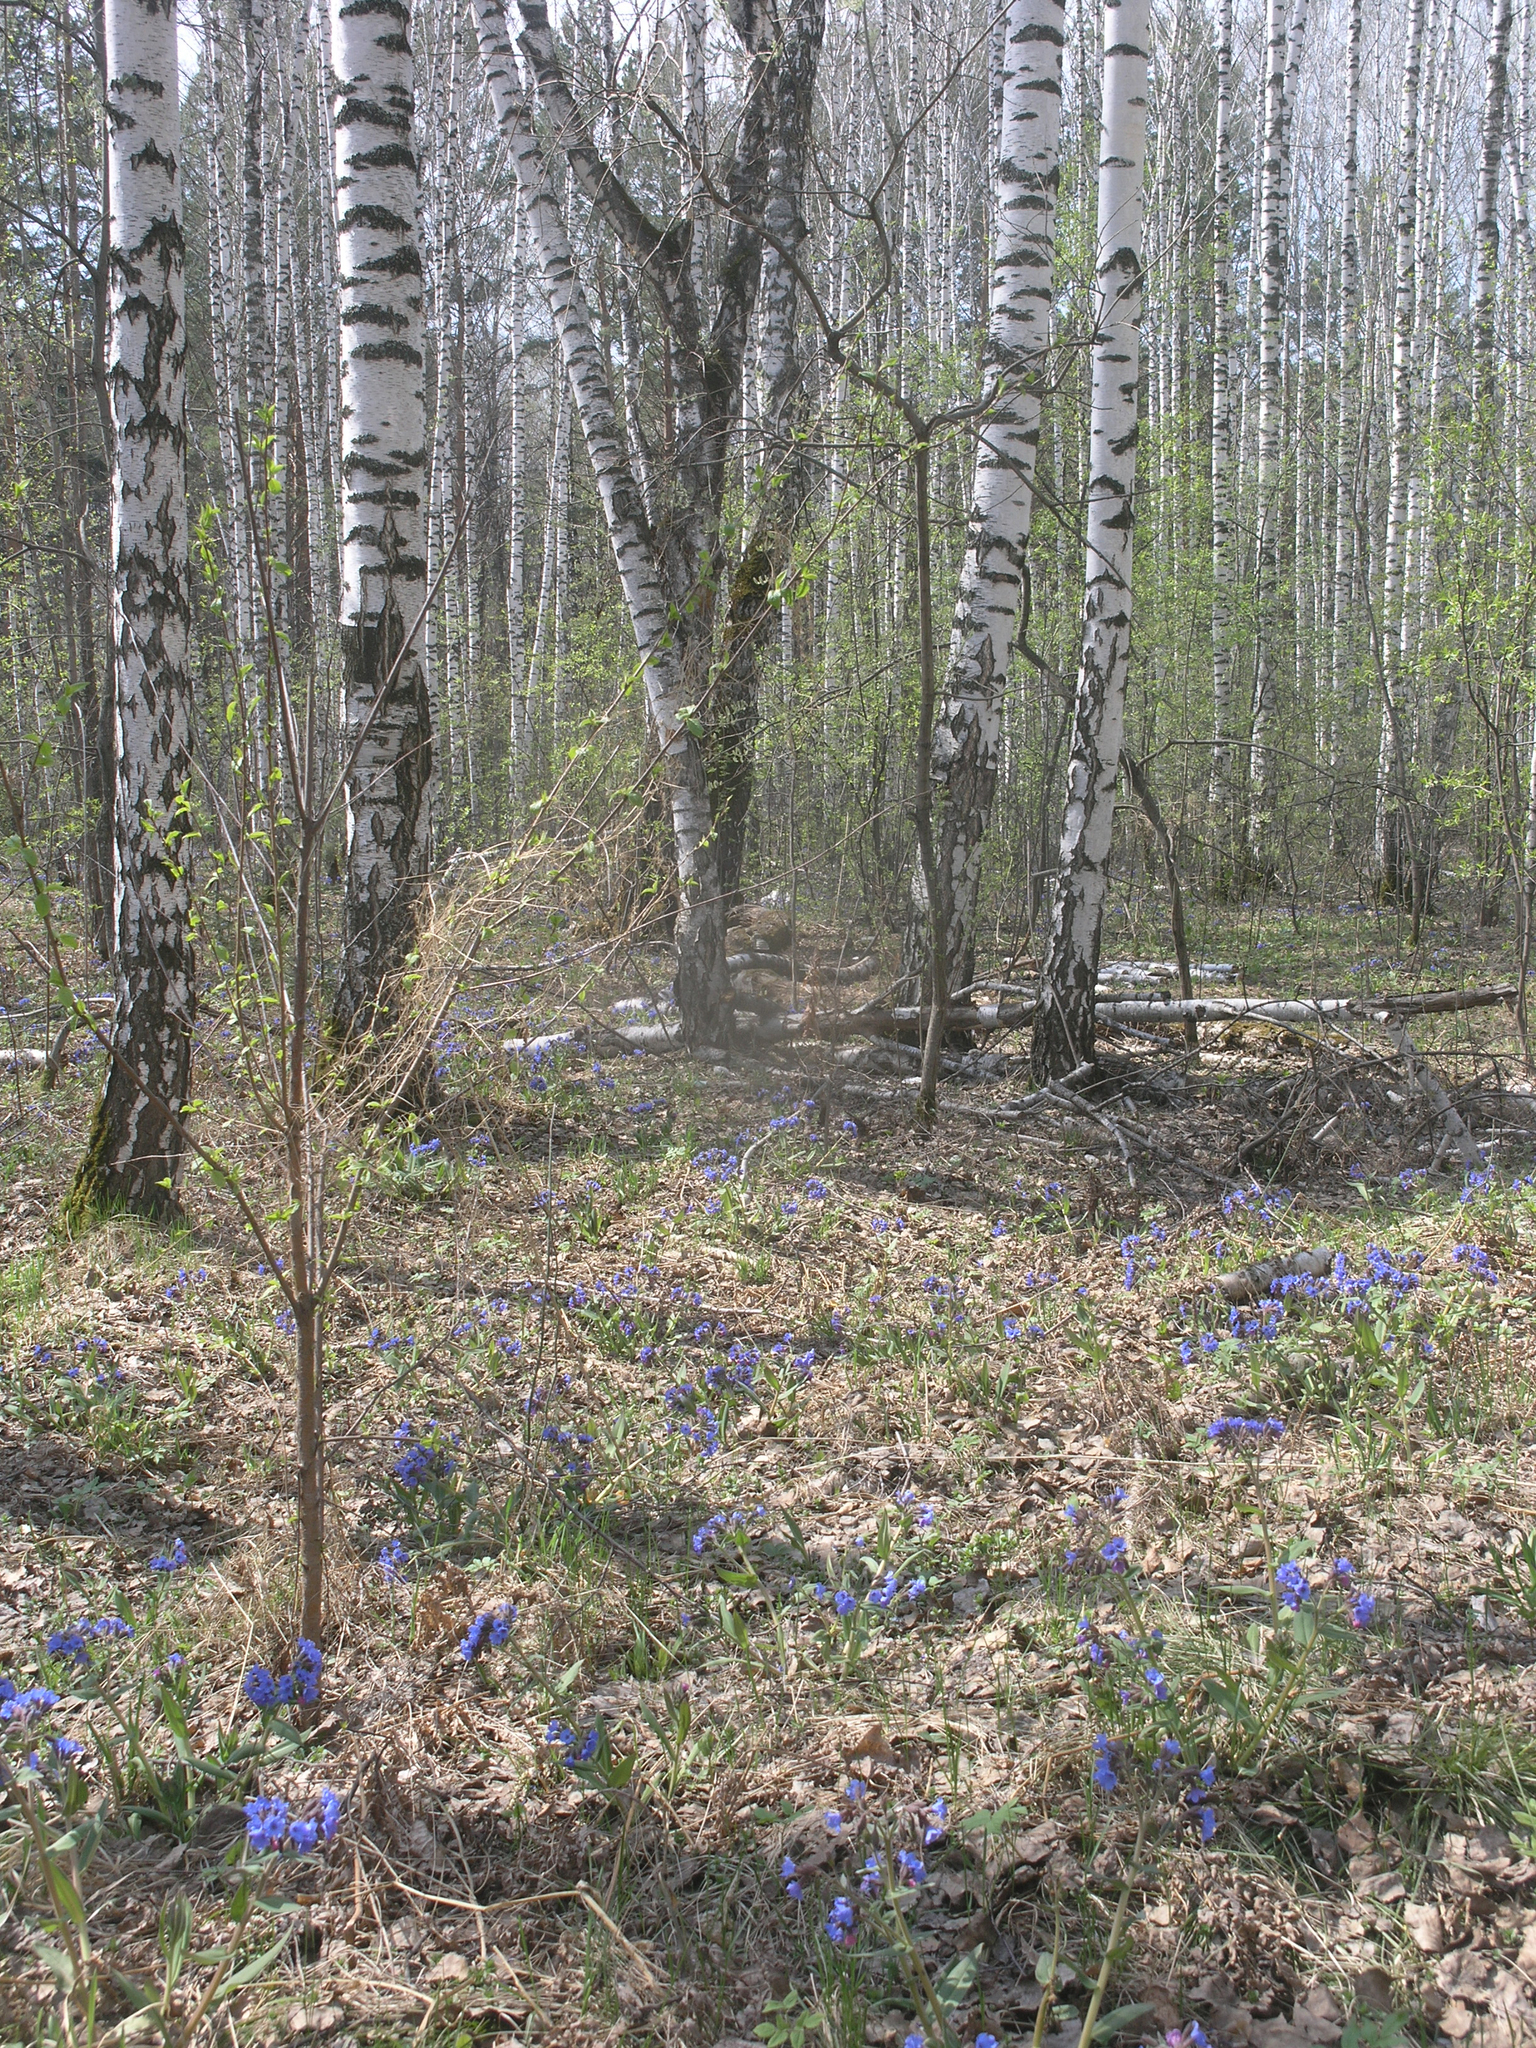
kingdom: Plantae
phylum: Tracheophyta
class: Magnoliopsida
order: Fagales
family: Betulaceae
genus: Betula
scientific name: Betula pendula
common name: Silver birch
